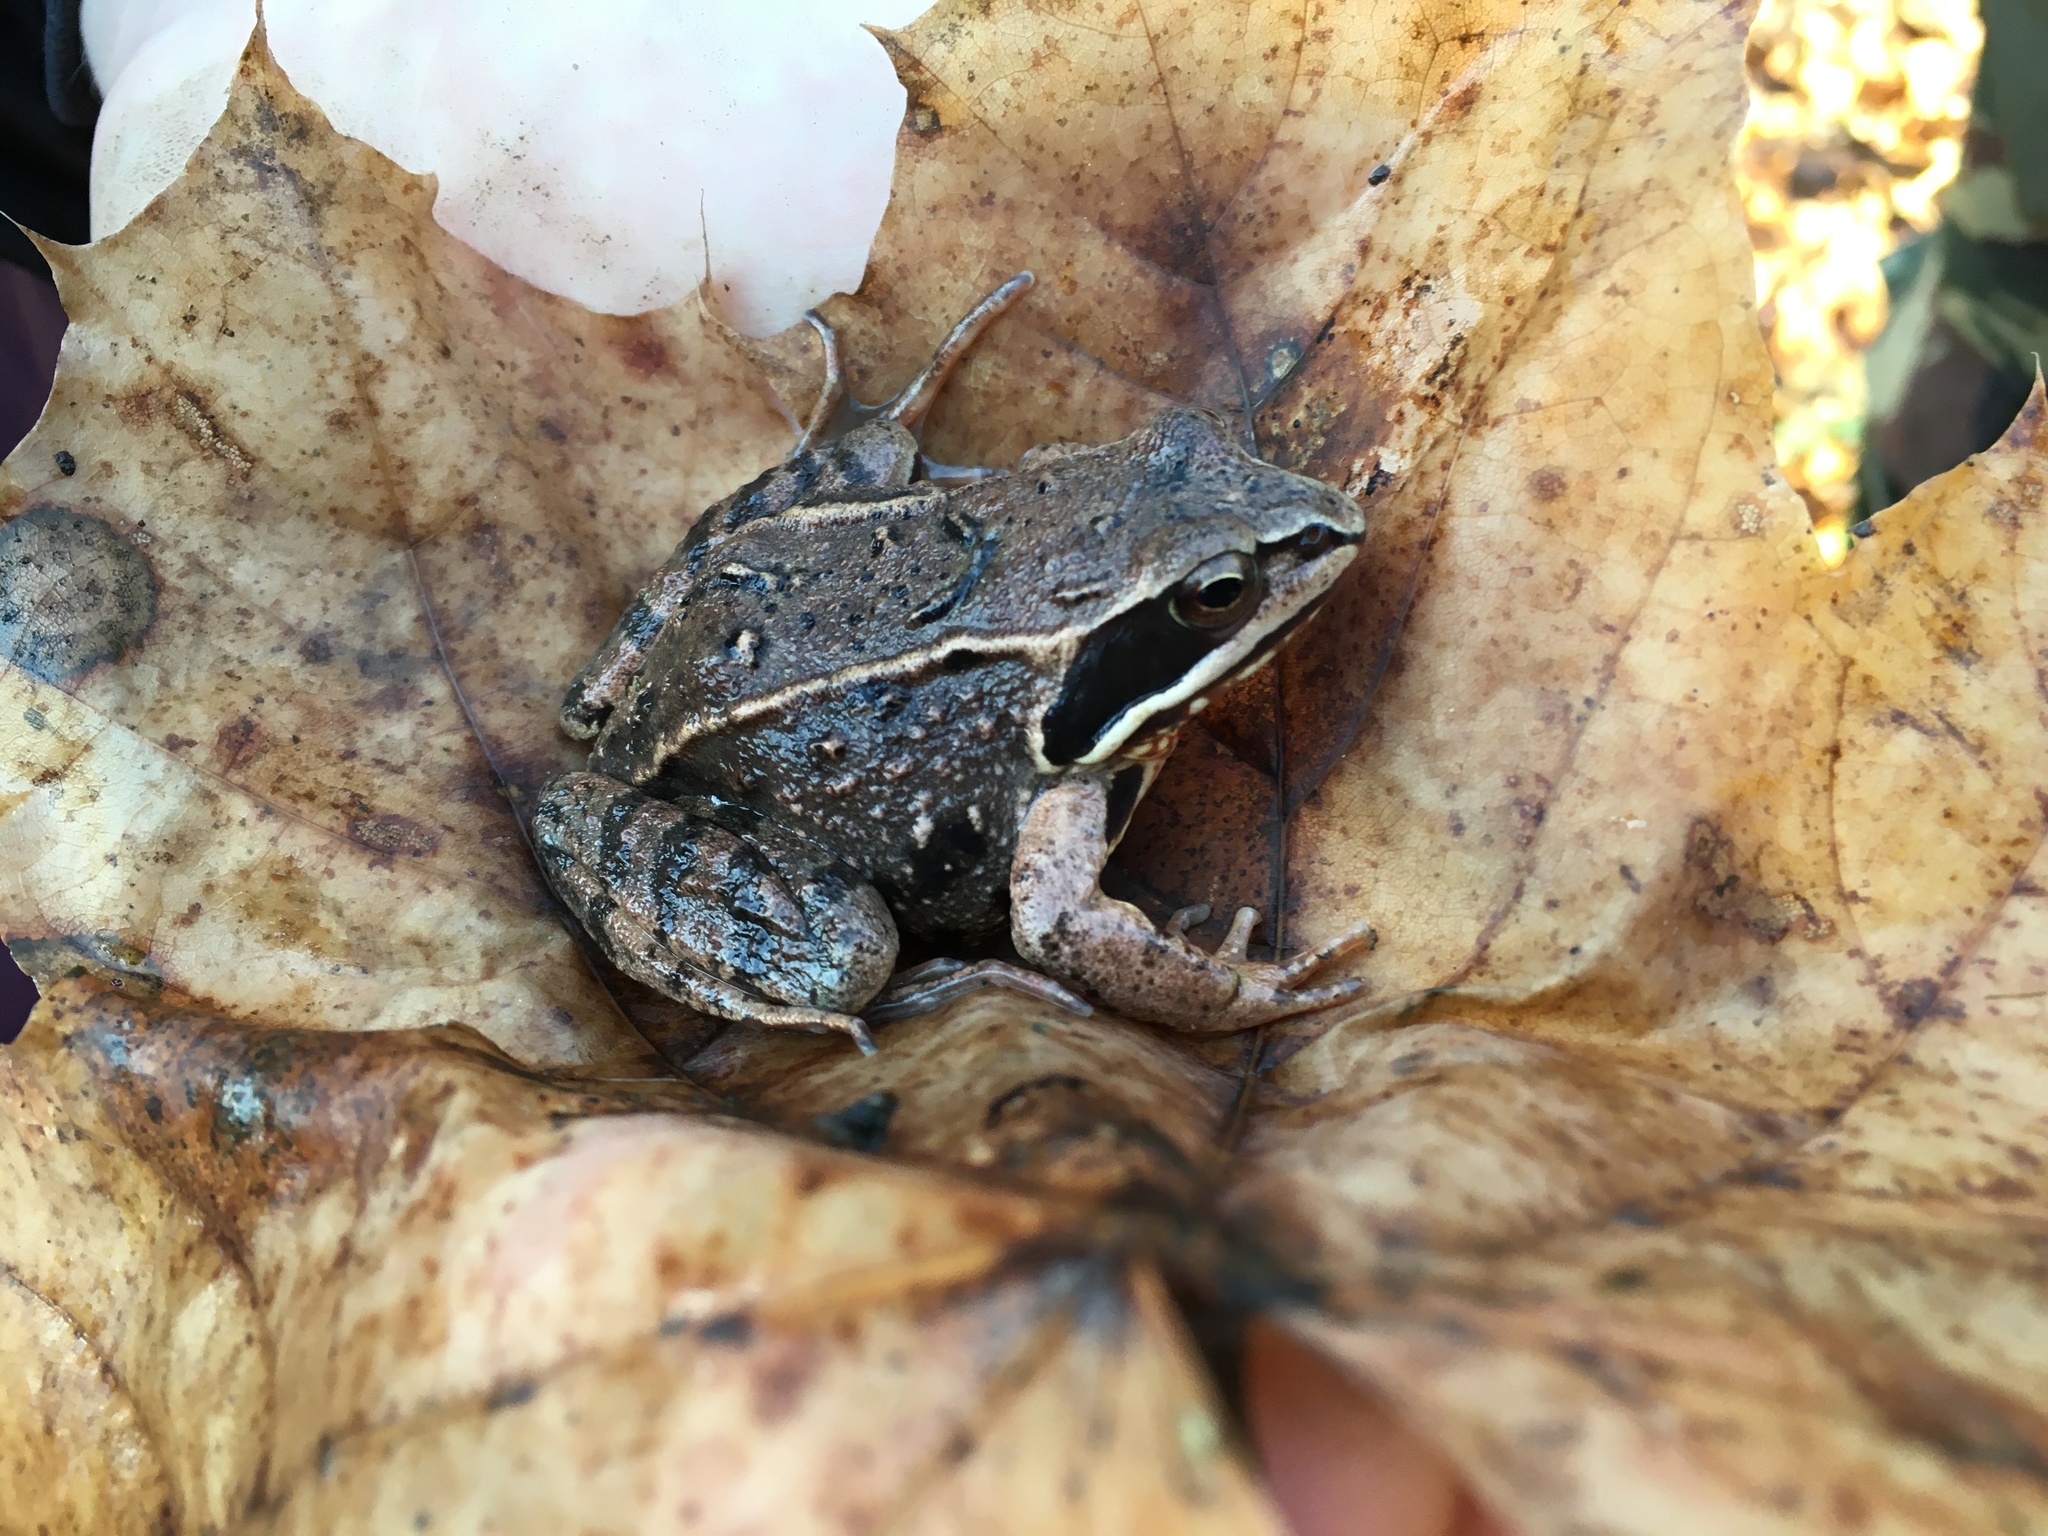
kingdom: Animalia
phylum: Chordata
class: Amphibia
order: Anura
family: Ranidae
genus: Rana
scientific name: Rana arvalis
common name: Moor frog
